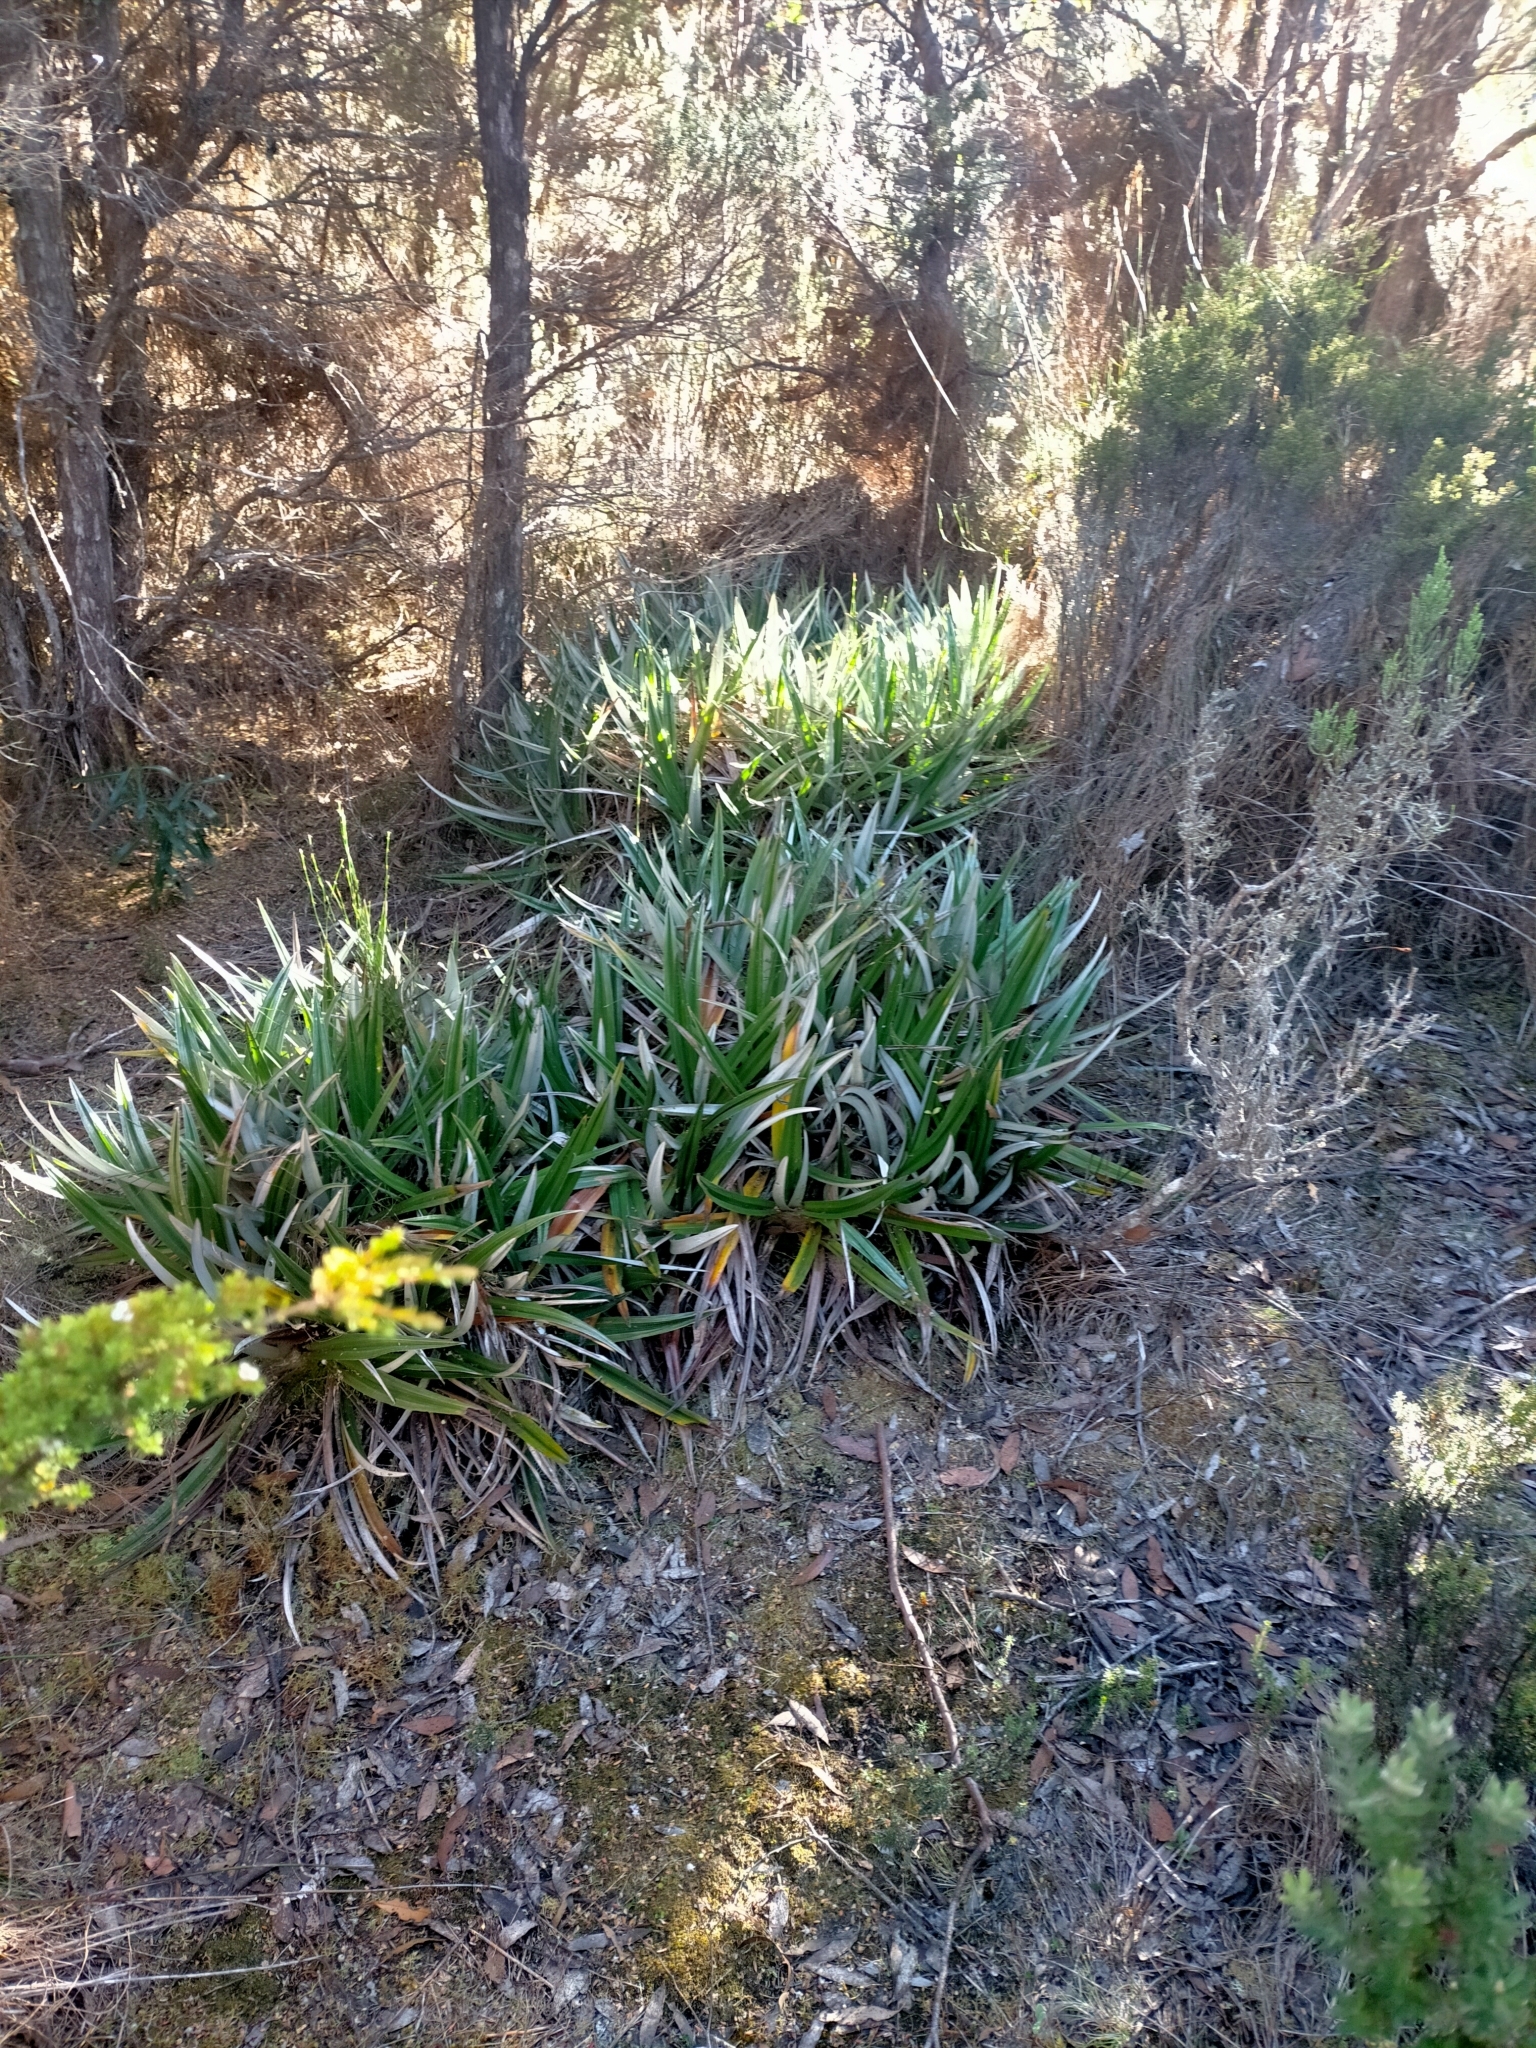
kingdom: Plantae
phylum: Tracheophyta
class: Liliopsida
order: Asparagales
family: Asteliaceae
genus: Astelia
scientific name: Astelia alpina
